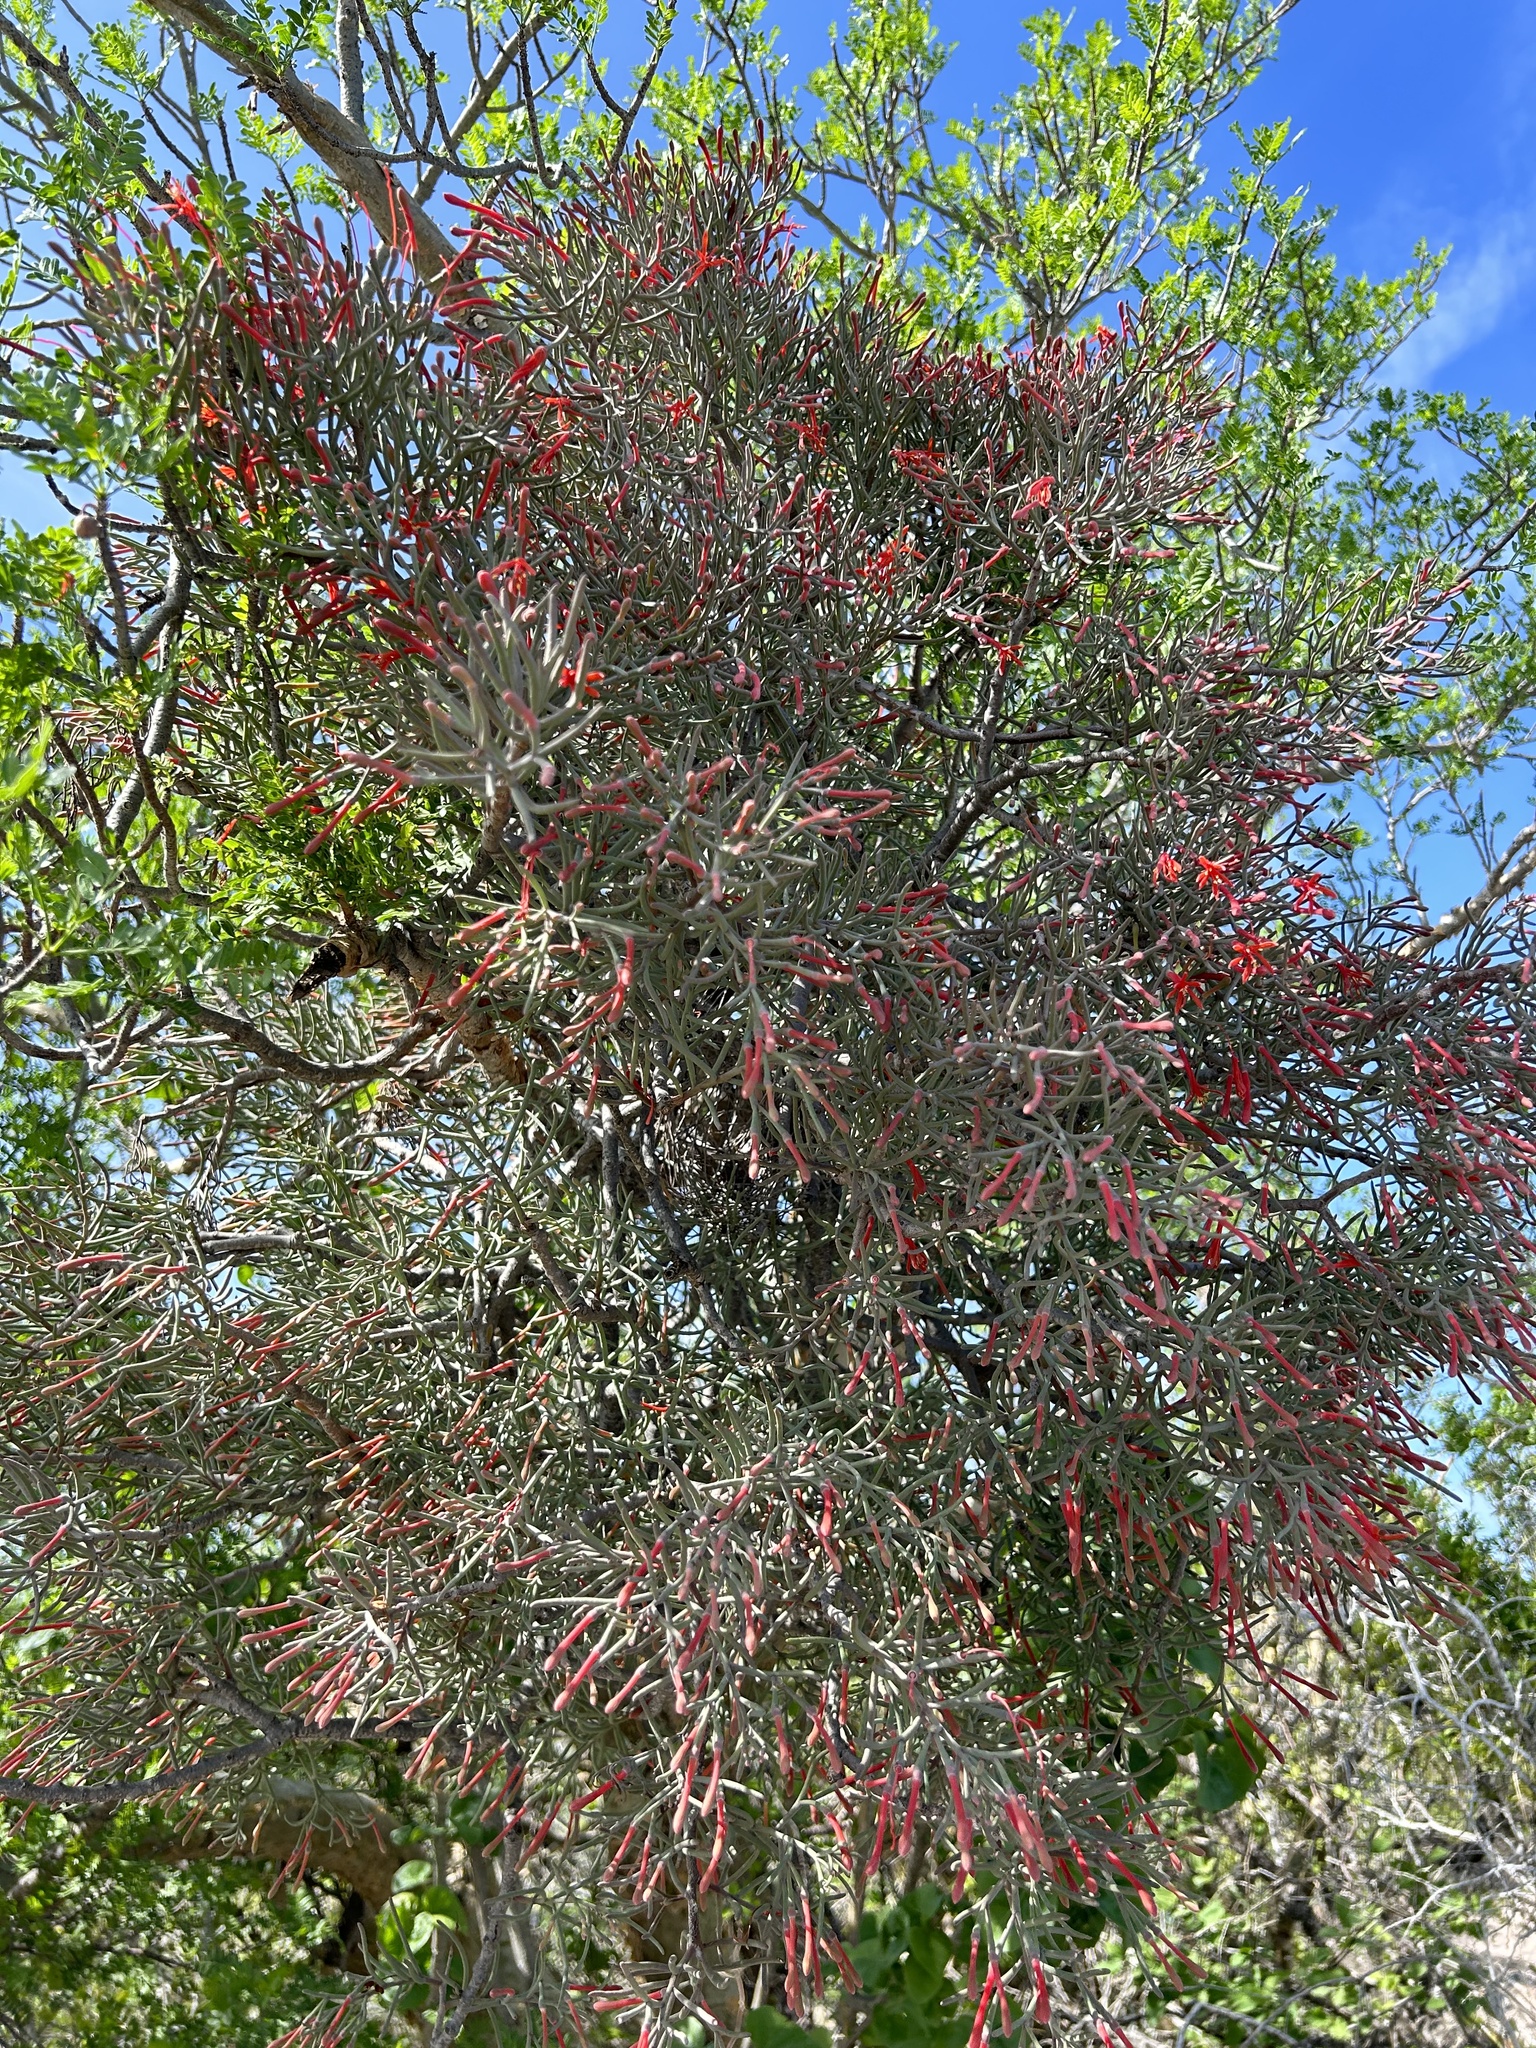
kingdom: Plantae
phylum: Tracheophyta
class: Magnoliopsida
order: Santalales
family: Loranthaceae
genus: Psittacanthus
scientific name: Psittacanthus sonorae
